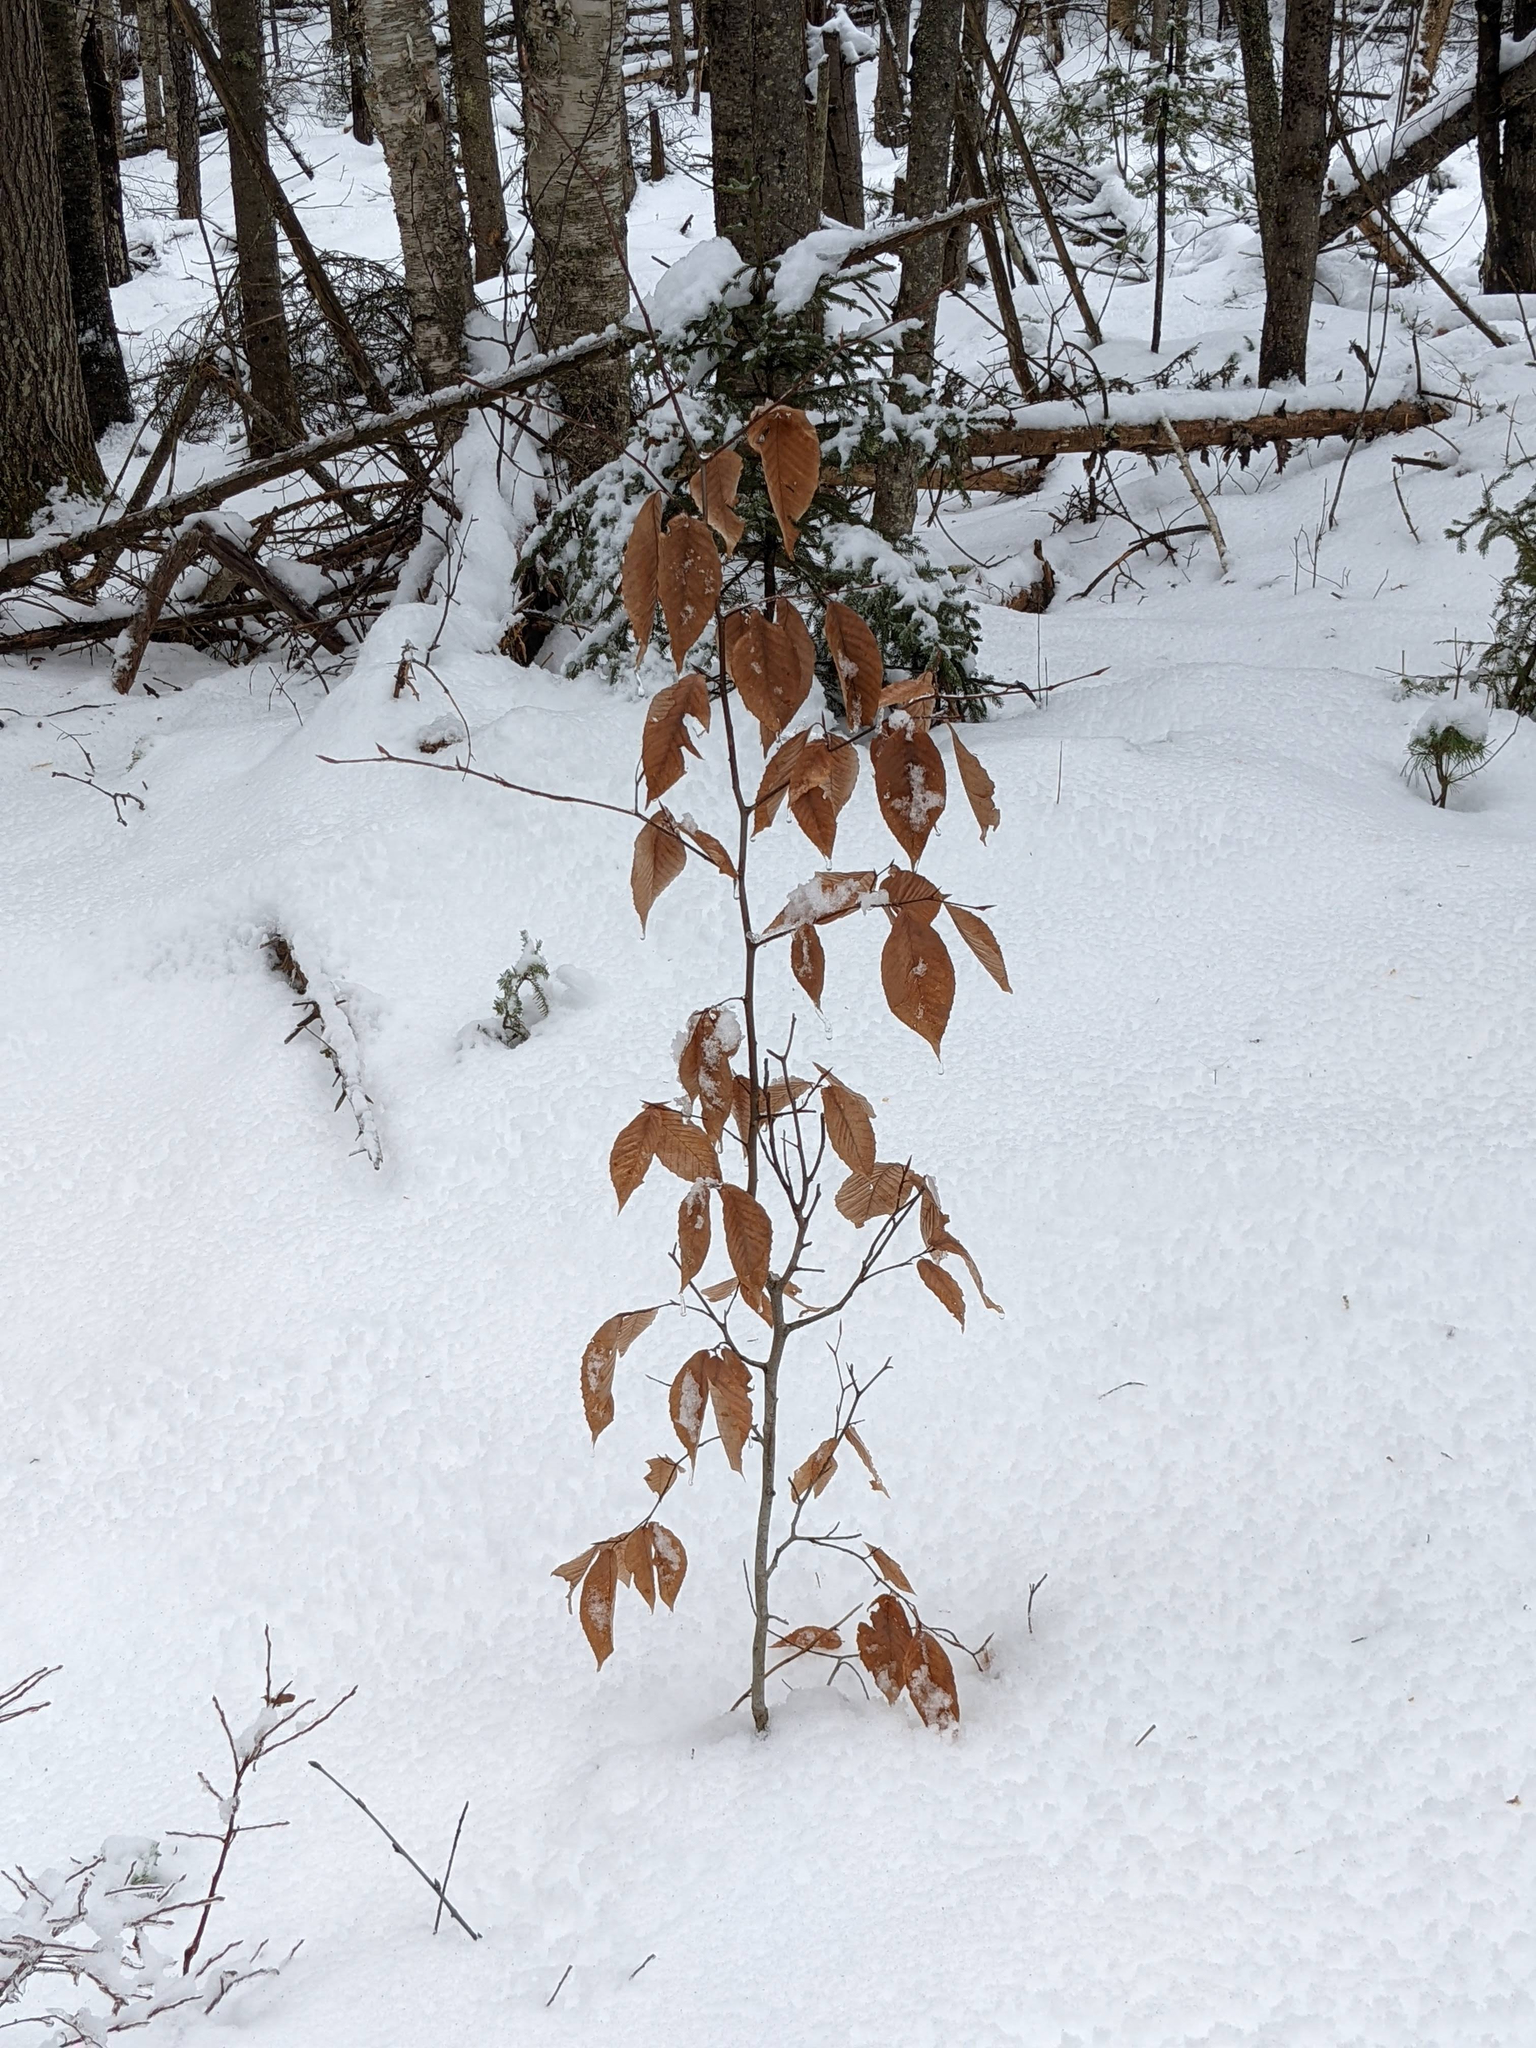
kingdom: Plantae
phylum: Tracheophyta
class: Magnoliopsida
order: Fagales
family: Fagaceae
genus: Fagus
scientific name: Fagus grandifolia
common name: American beech
